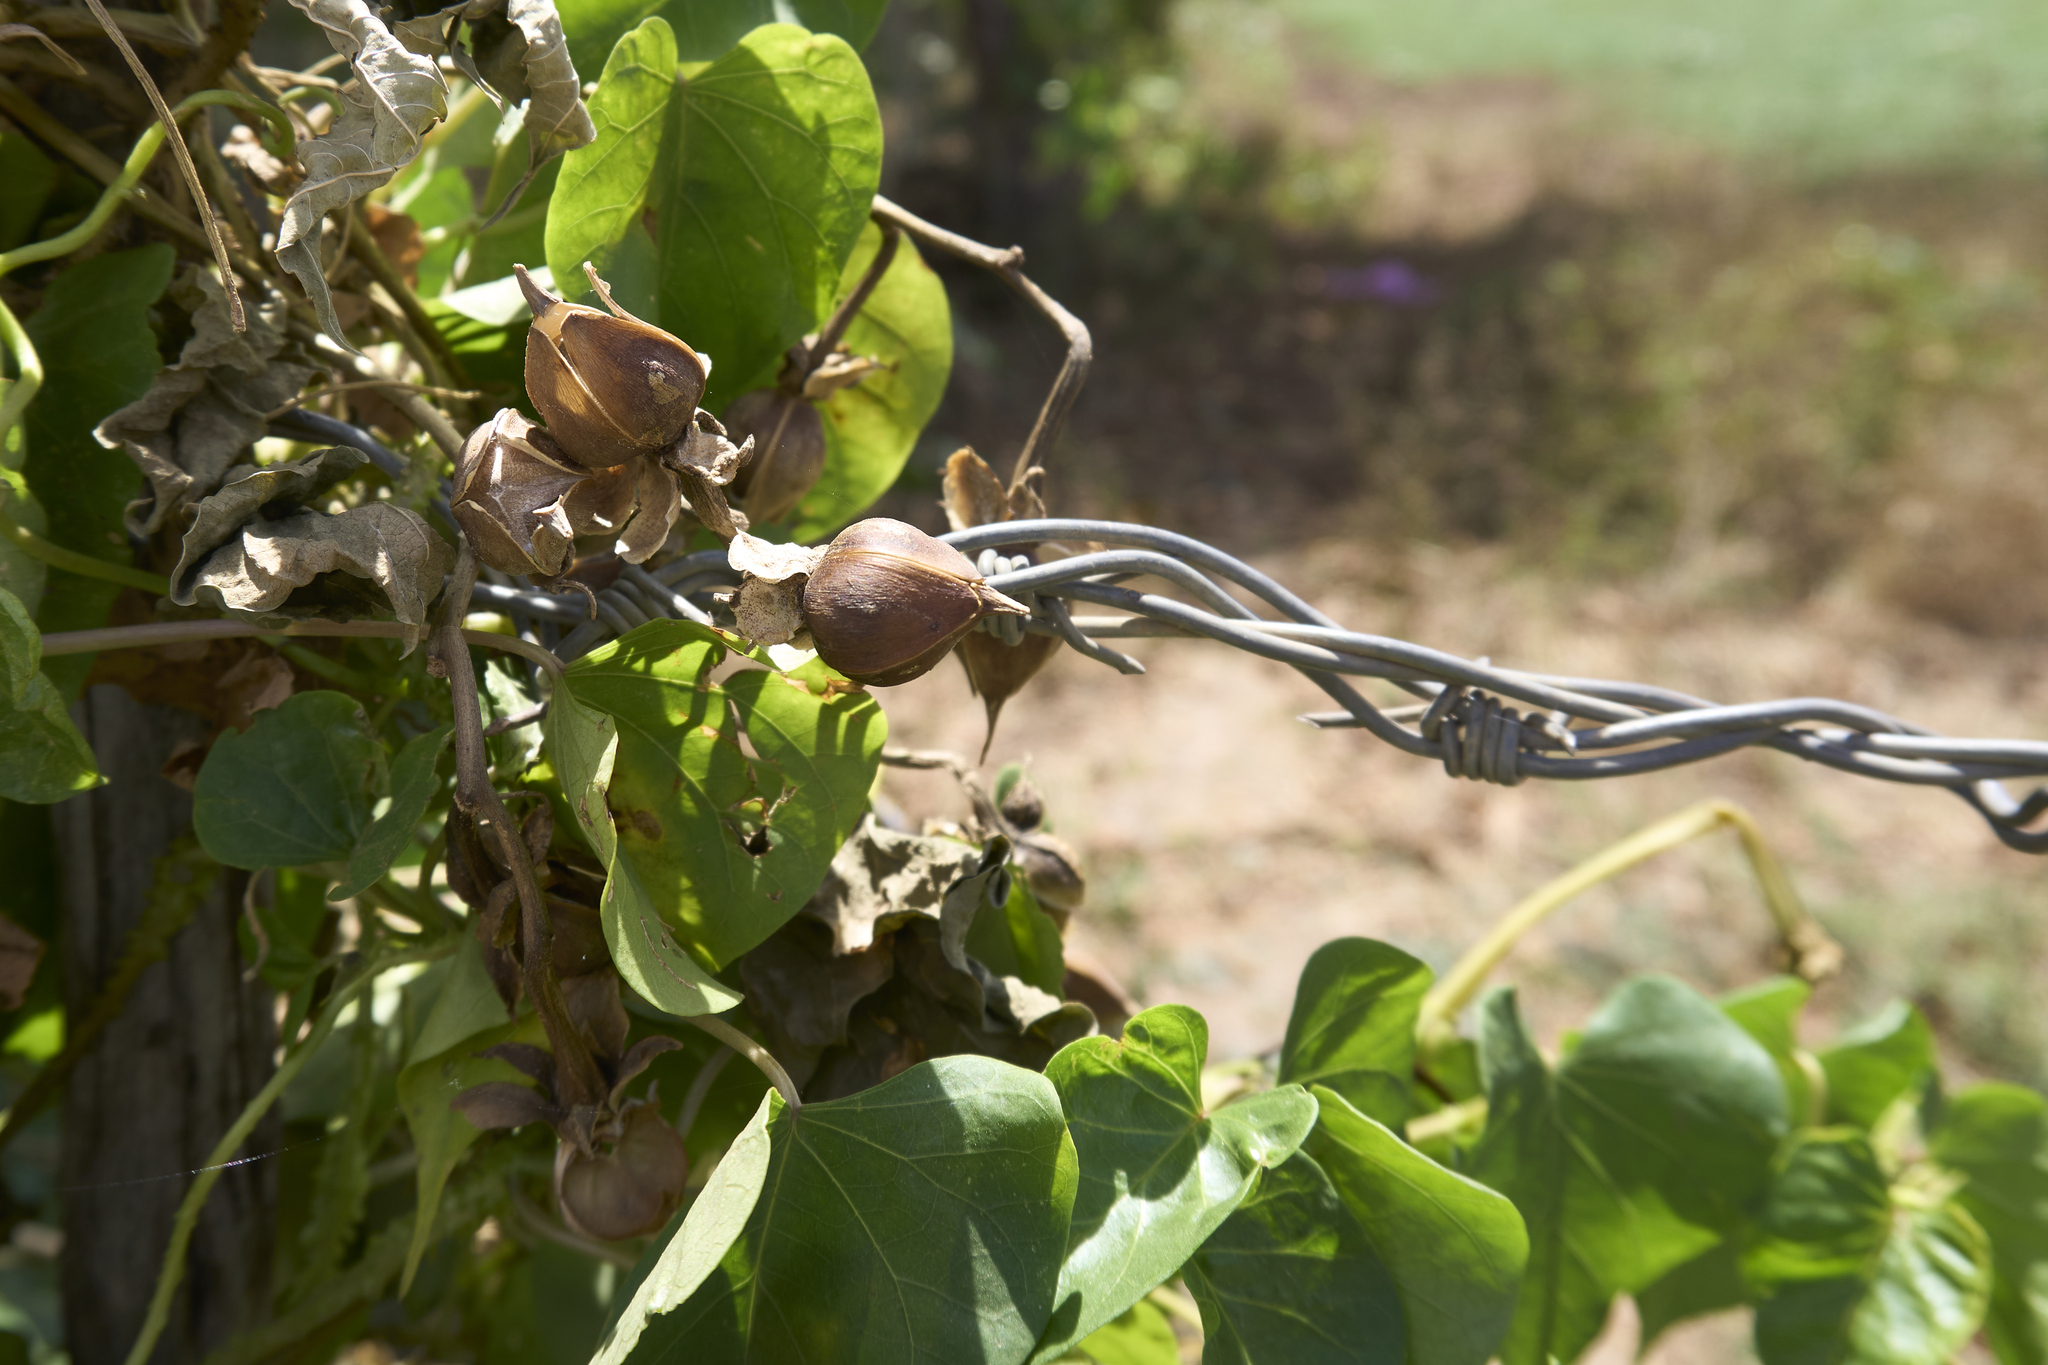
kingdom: Plantae
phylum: Tracheophyta
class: Magnoliopsida
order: Solanales
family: Convolvulaceae
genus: Ipomoea
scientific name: Ipomoea alba
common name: Moonflower
